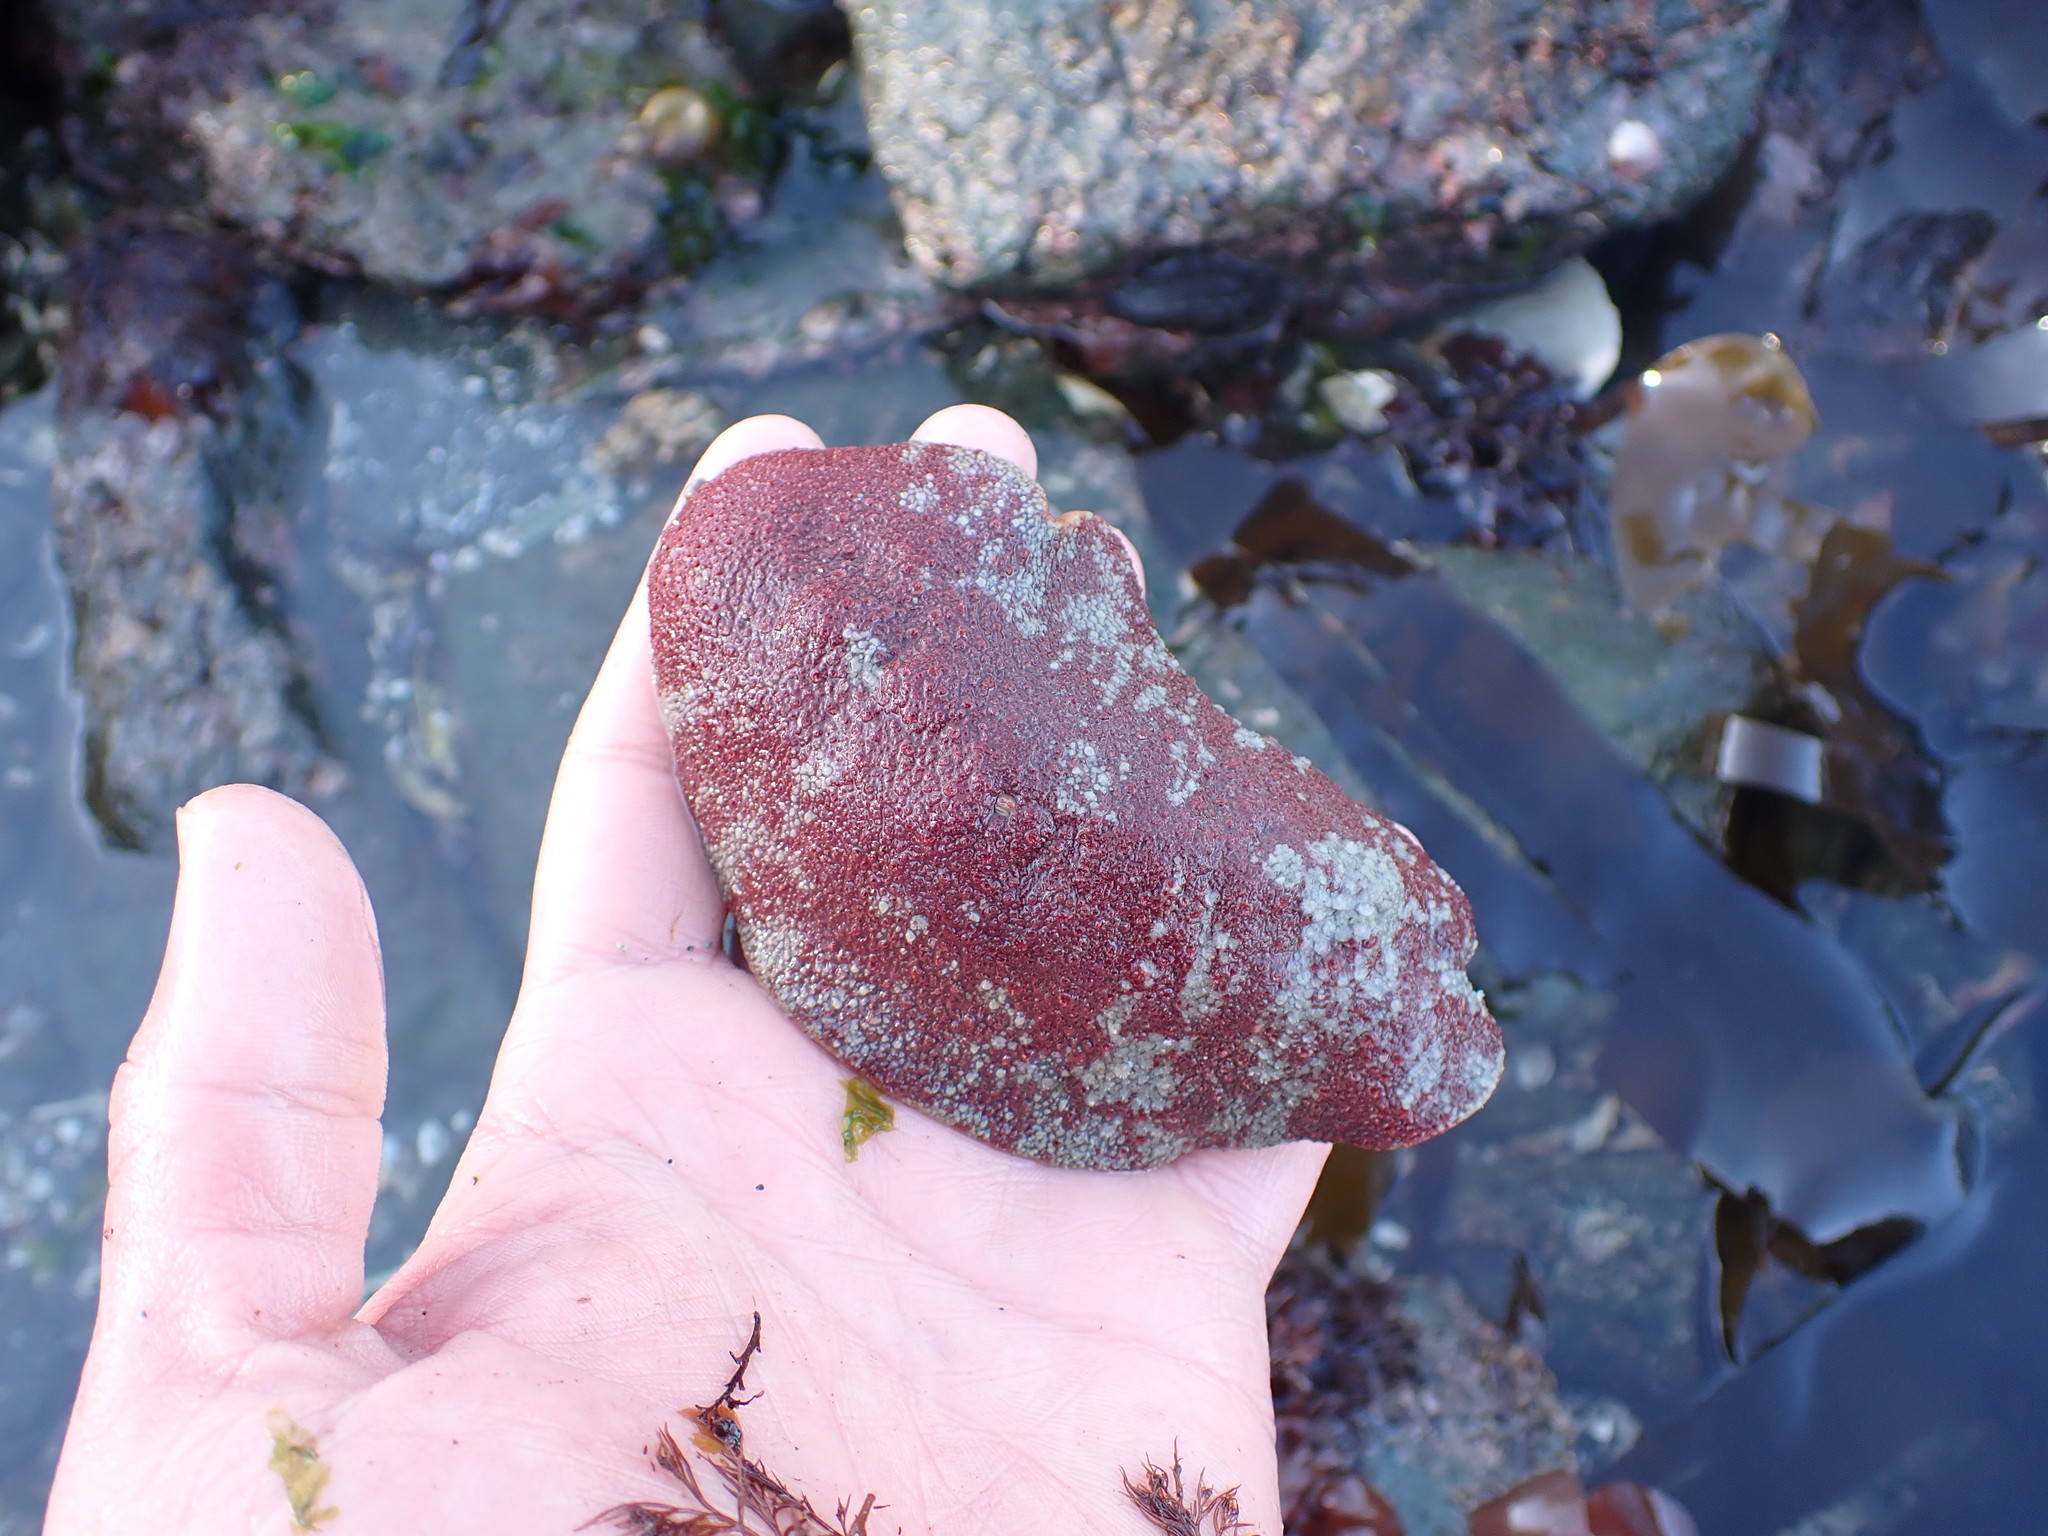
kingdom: Animalia
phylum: Mollusca
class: Polyplacophora
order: Chitonida
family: Acanthochitonidae
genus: Cryptochiton
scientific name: Cryptochiton stelleri
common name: Giant pacific chiton
